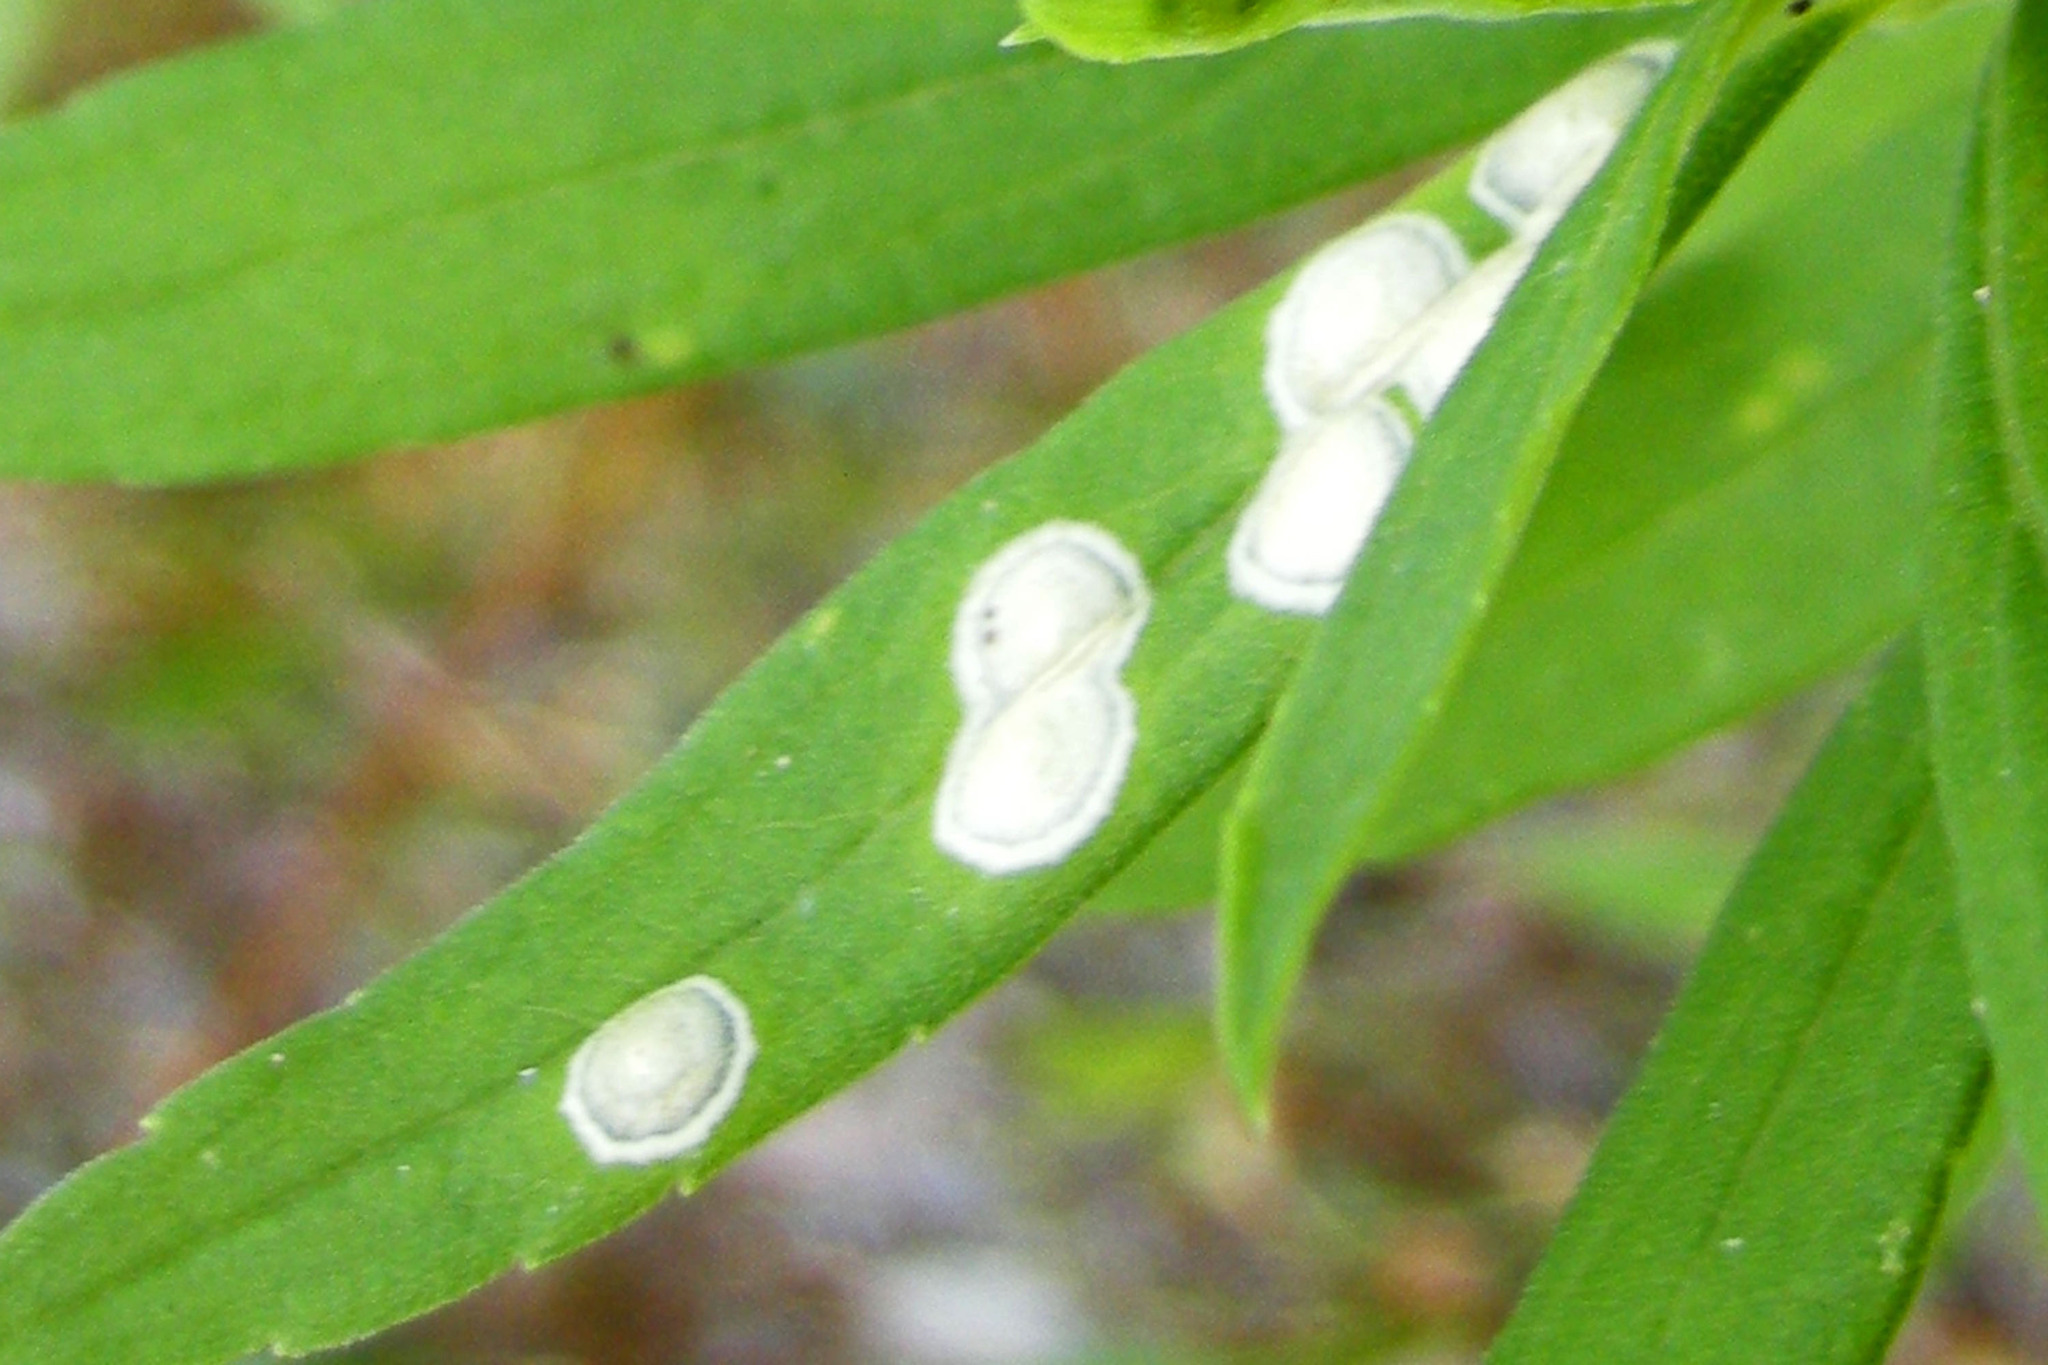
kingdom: Animalia
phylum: Arthropoda
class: Insecta
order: Diptera
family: Cecidomyiidae
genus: Asteromyia
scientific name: Asteromyia carbonifera
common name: Carbonifera goldenrod gall midge
